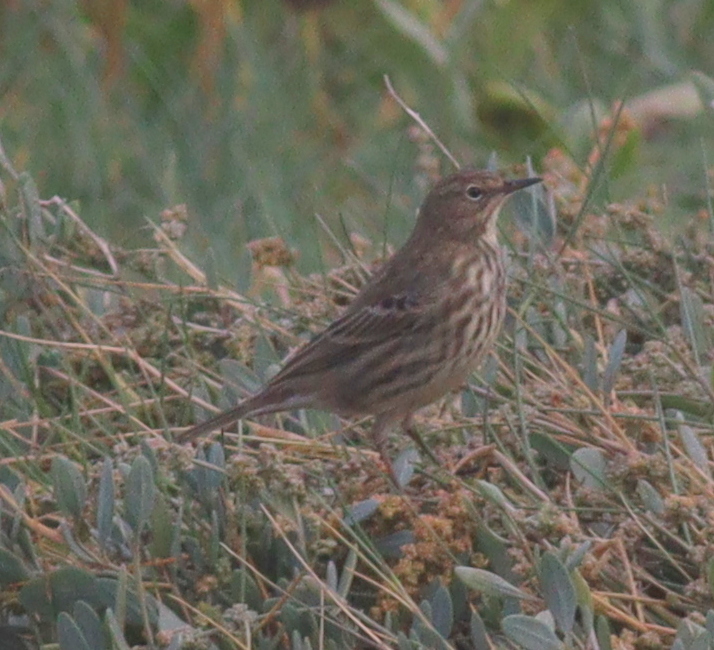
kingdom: Animalia
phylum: Chordata
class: Aves
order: Passeriformes
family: Motacillidae
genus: Anthus
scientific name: Anthus petrosus
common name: Eurasian rock pipit
